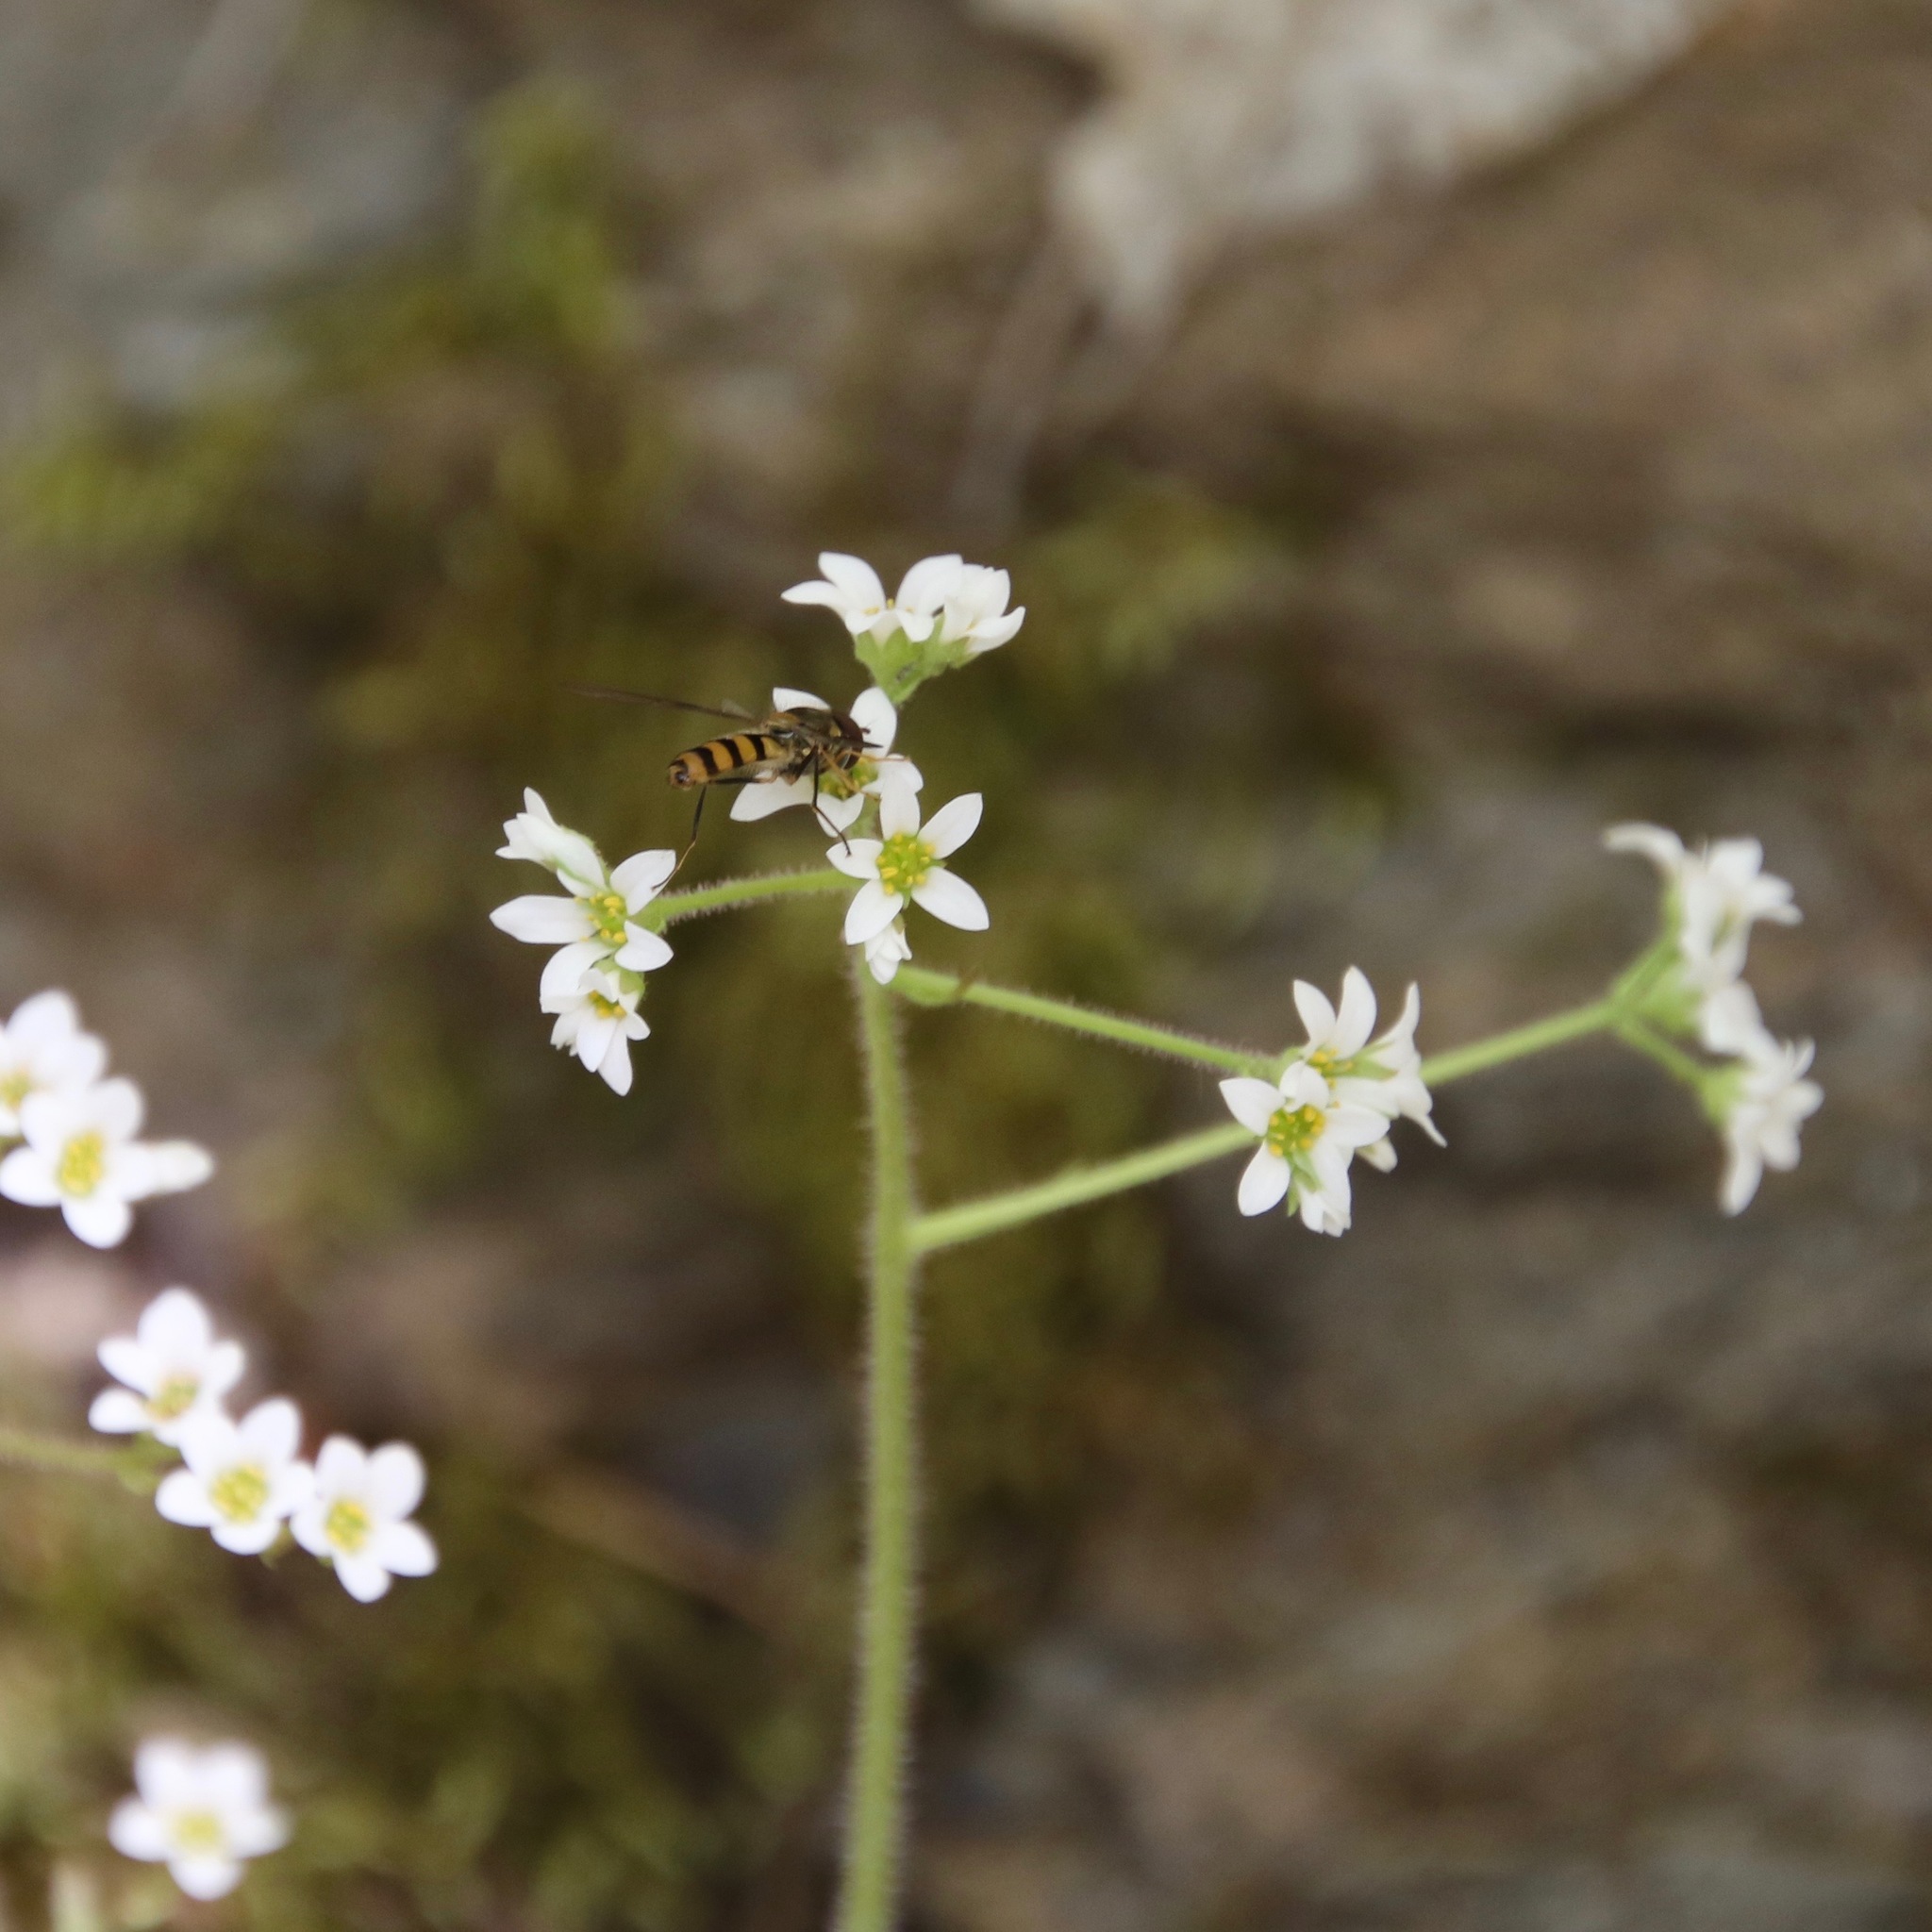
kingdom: Plantae
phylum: Tracheophyta
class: Magnoliopsida
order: Saxifragales
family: Saxifragaceae
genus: Micranthes
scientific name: Micranthes virginiensis
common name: Early saxifrage
